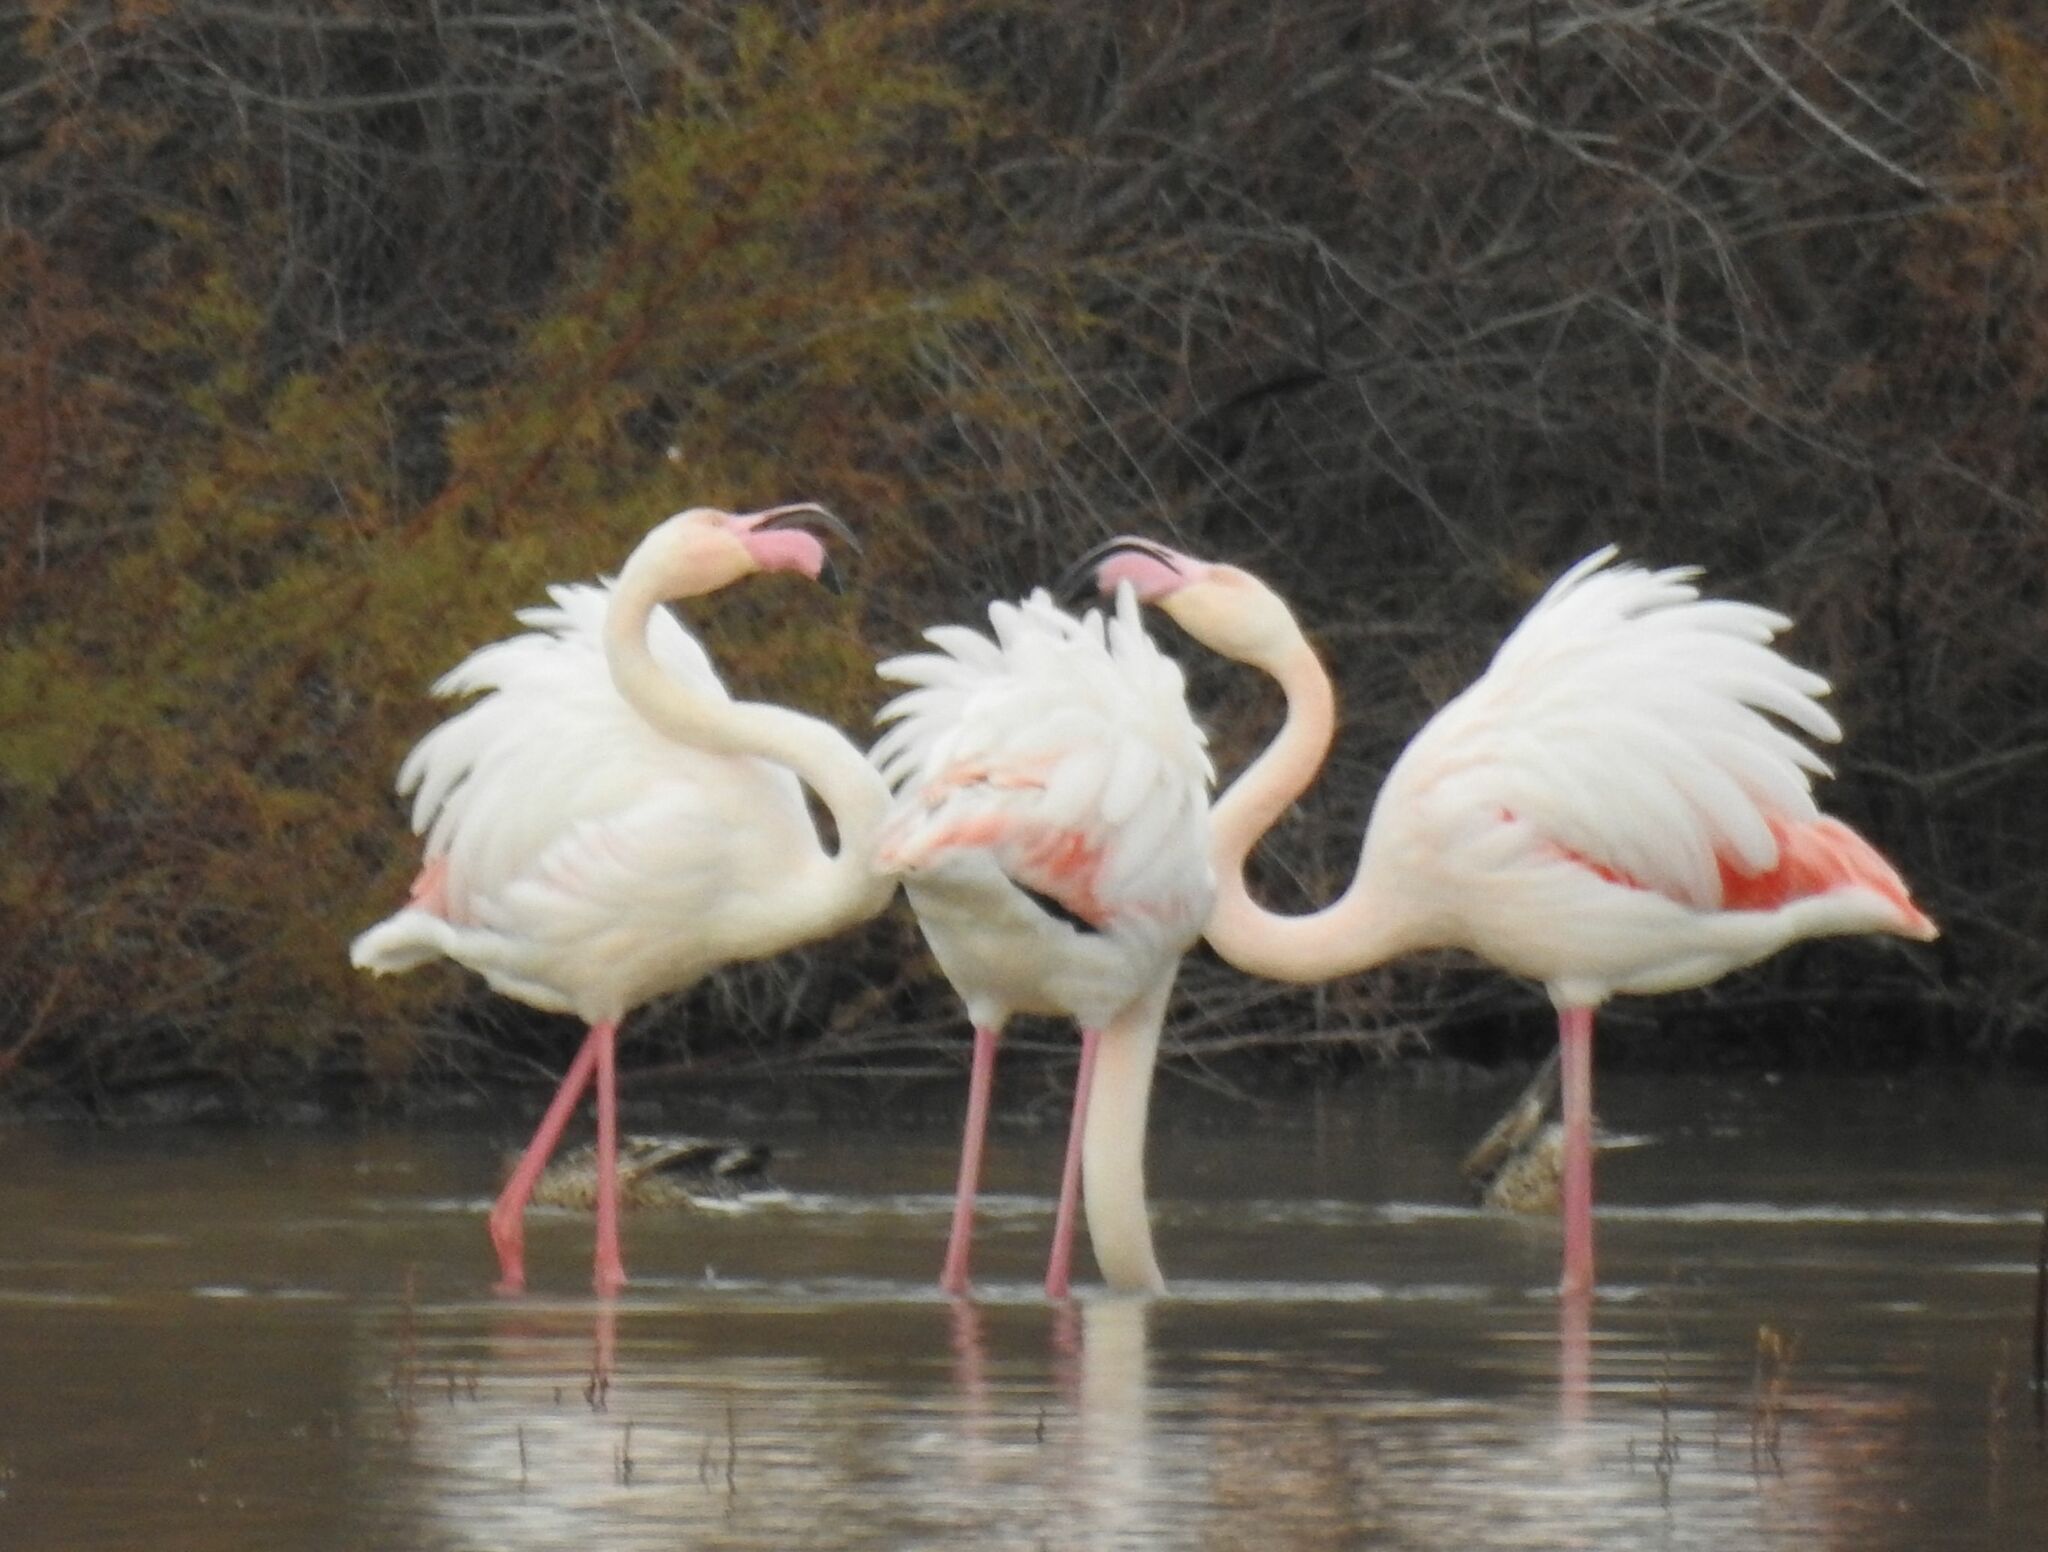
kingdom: Animalia
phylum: Chordata
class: Aves
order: Phoenicopteriformes
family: Phoenicopteridae
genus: Phoenicopterus
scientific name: Phoenicopterus roseus
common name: Greater flamingo
